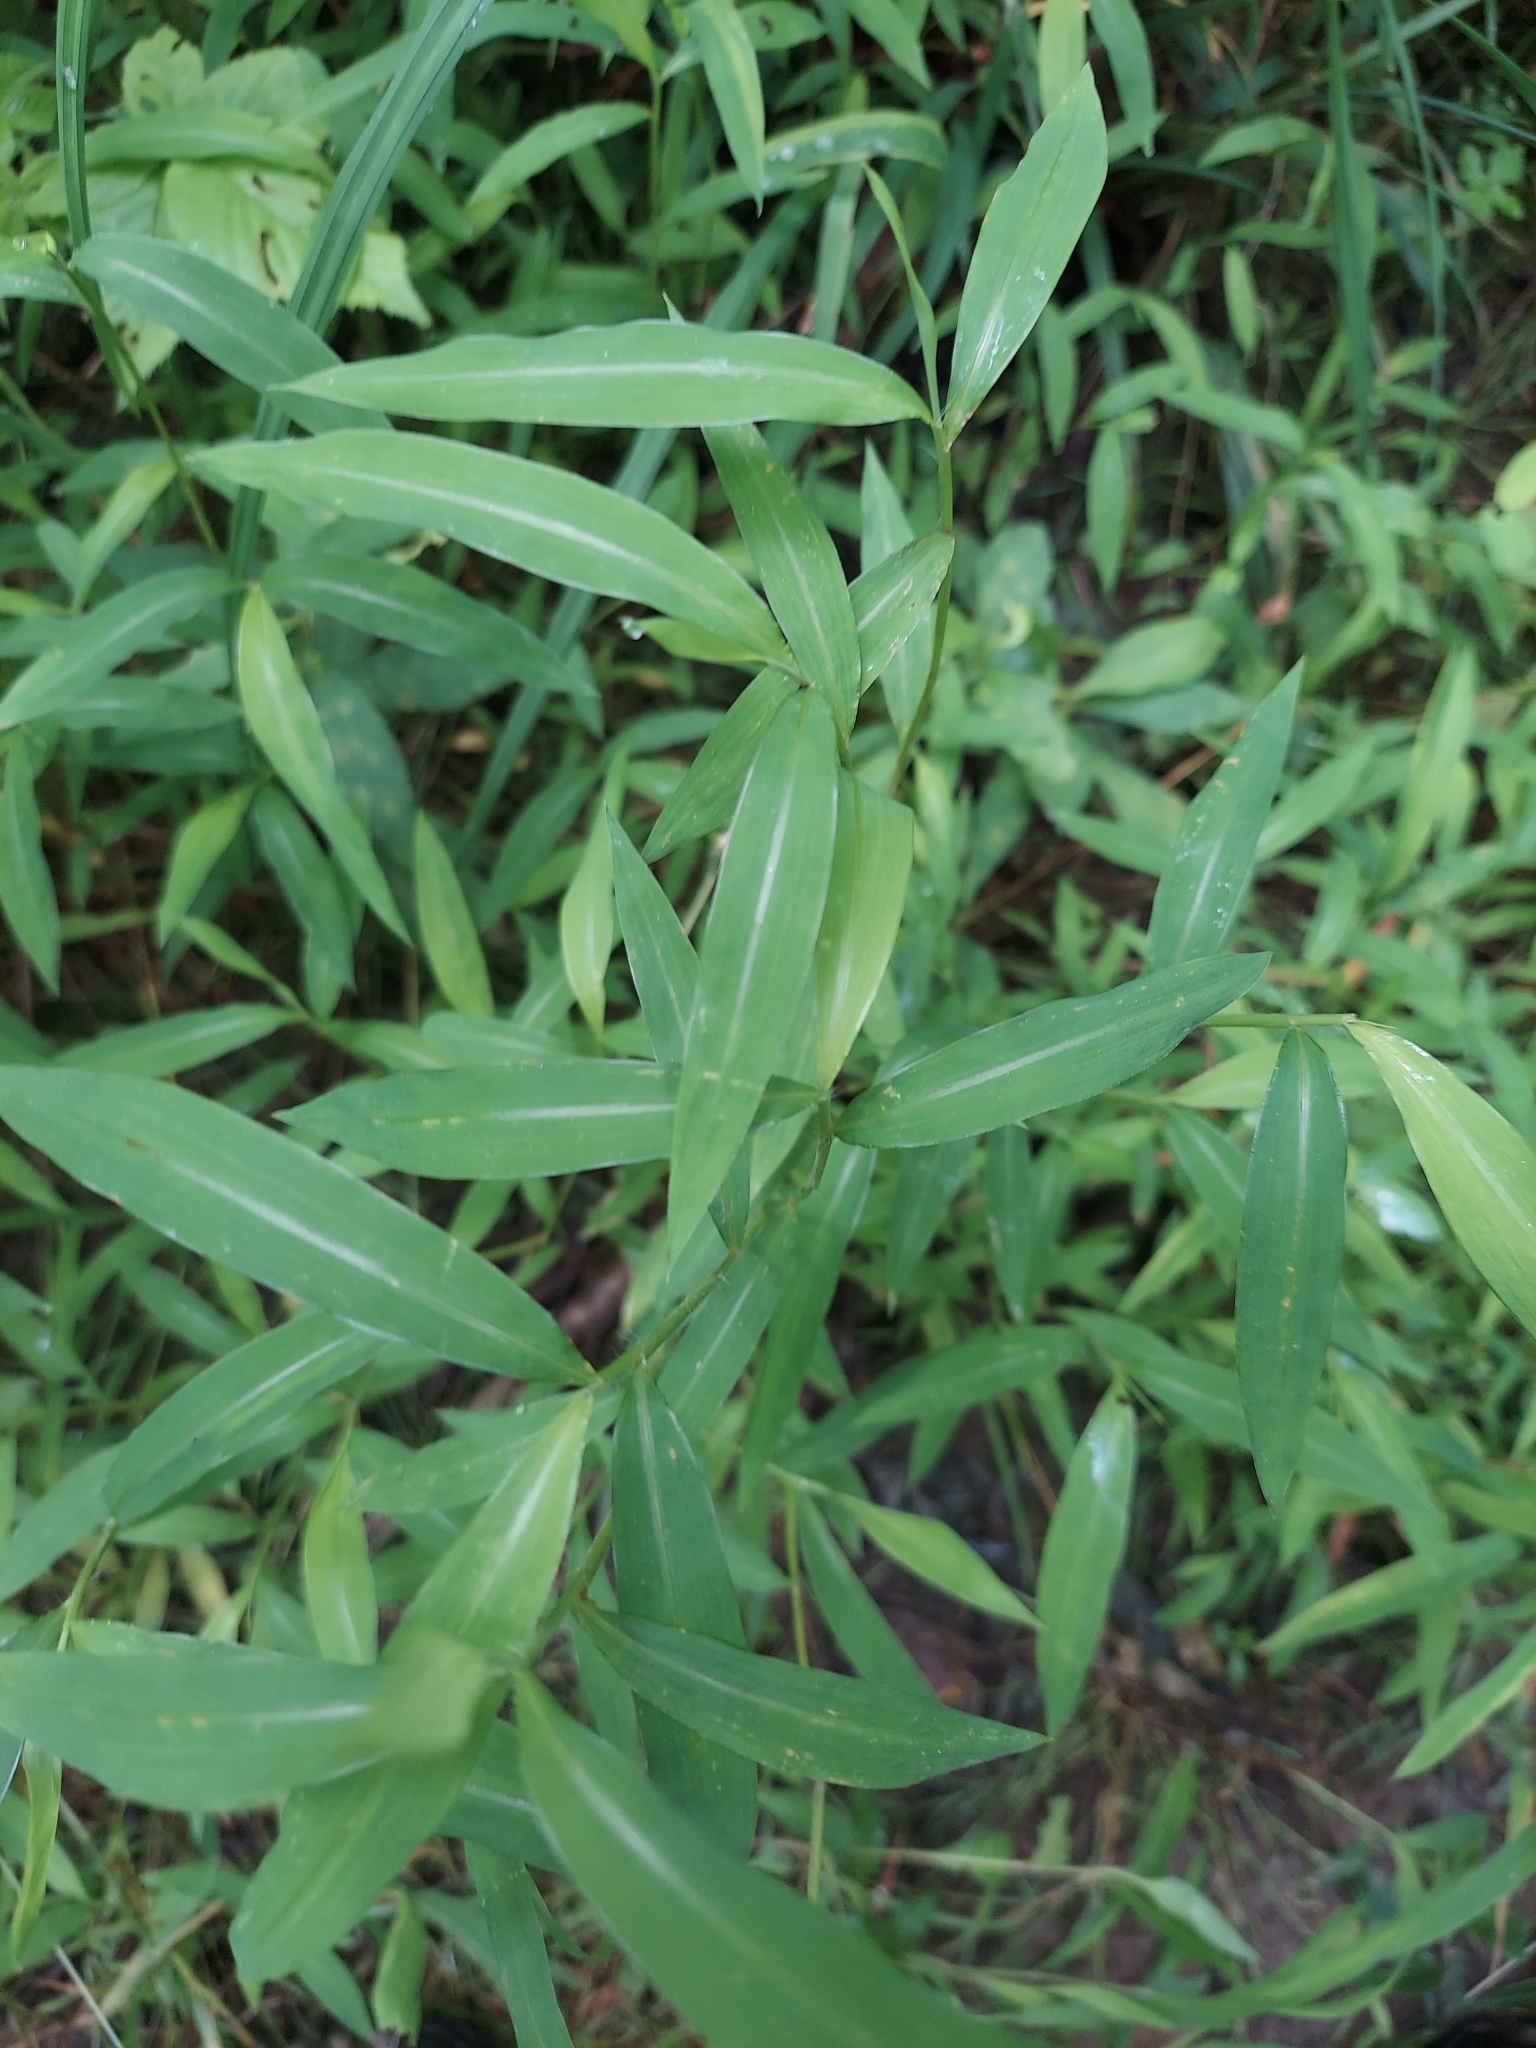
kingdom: Plantae
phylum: Tracheophyta
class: Liliopsida
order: Poales
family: Poaceae
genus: Microstegium
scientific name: Microstegium vimineum
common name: Japanese stiltgrass
